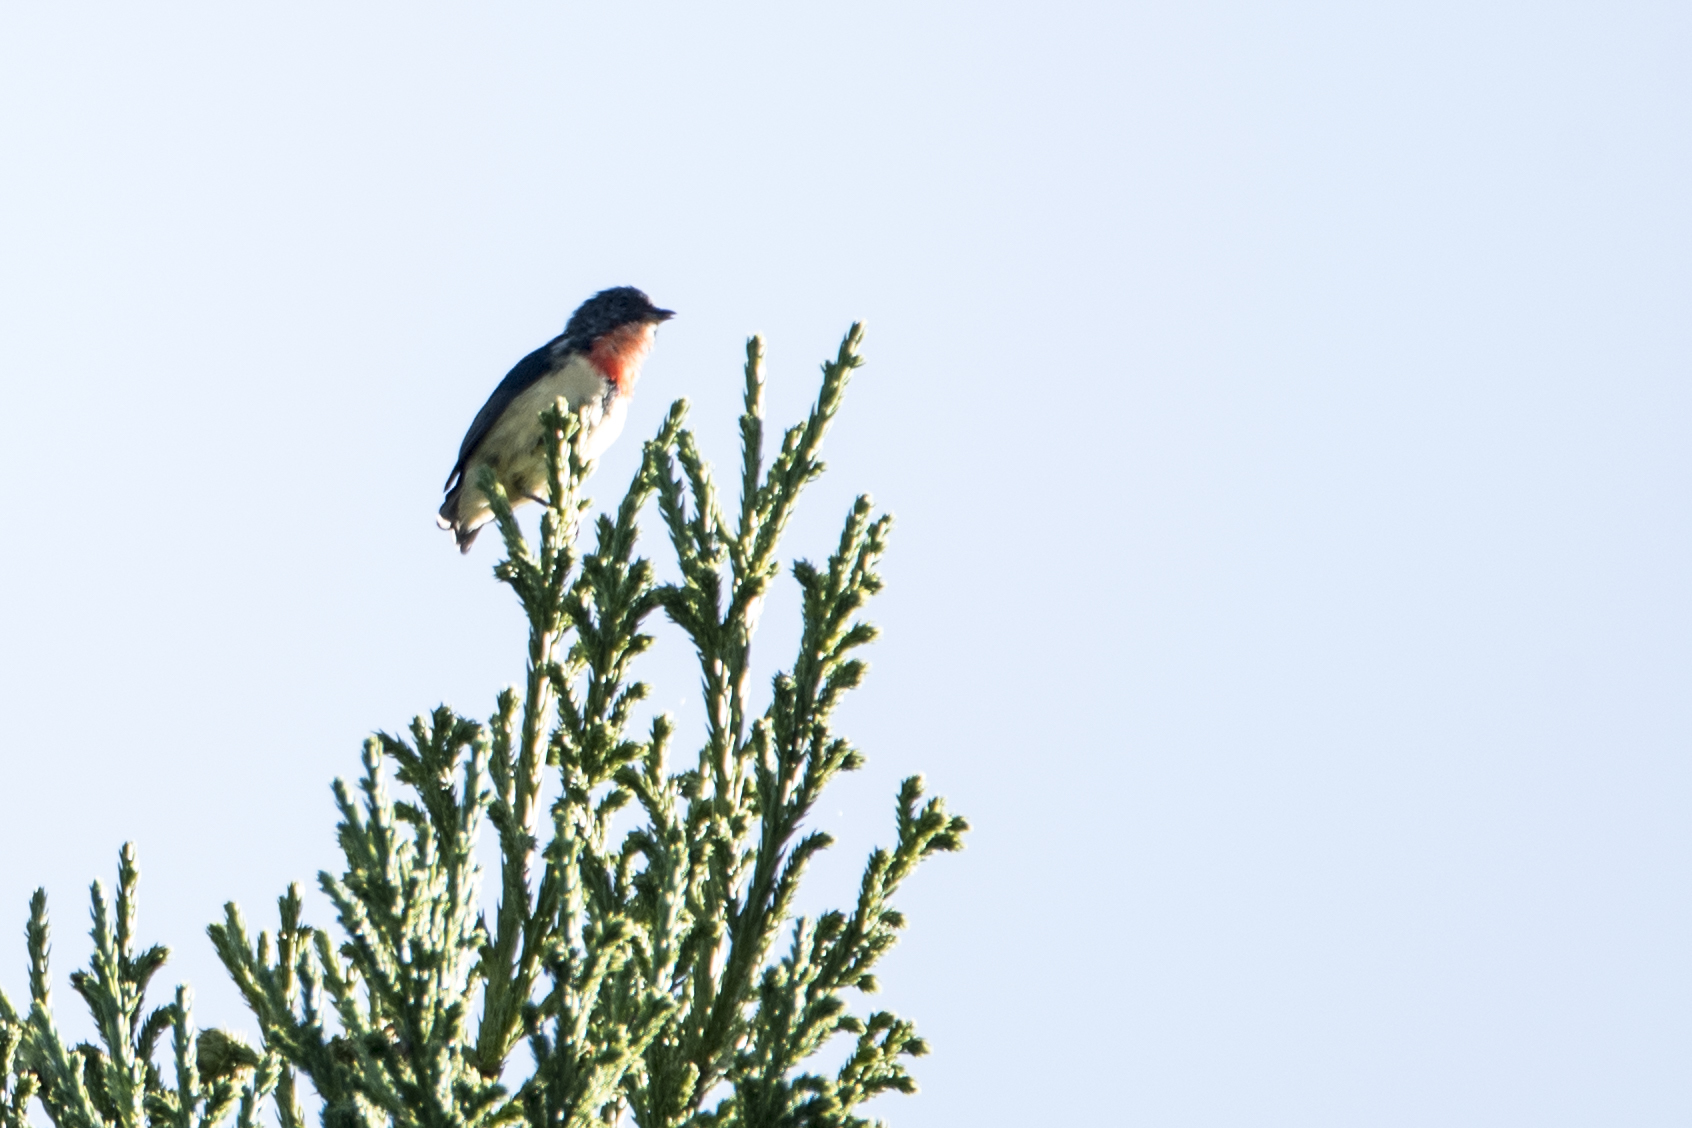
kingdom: Animalia
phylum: Chordata
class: Aves
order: Passeriformes
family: Dicaeidae
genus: Dicaeum
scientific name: Dicaeum ignipectus
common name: Fire-breasted flowerpecker
